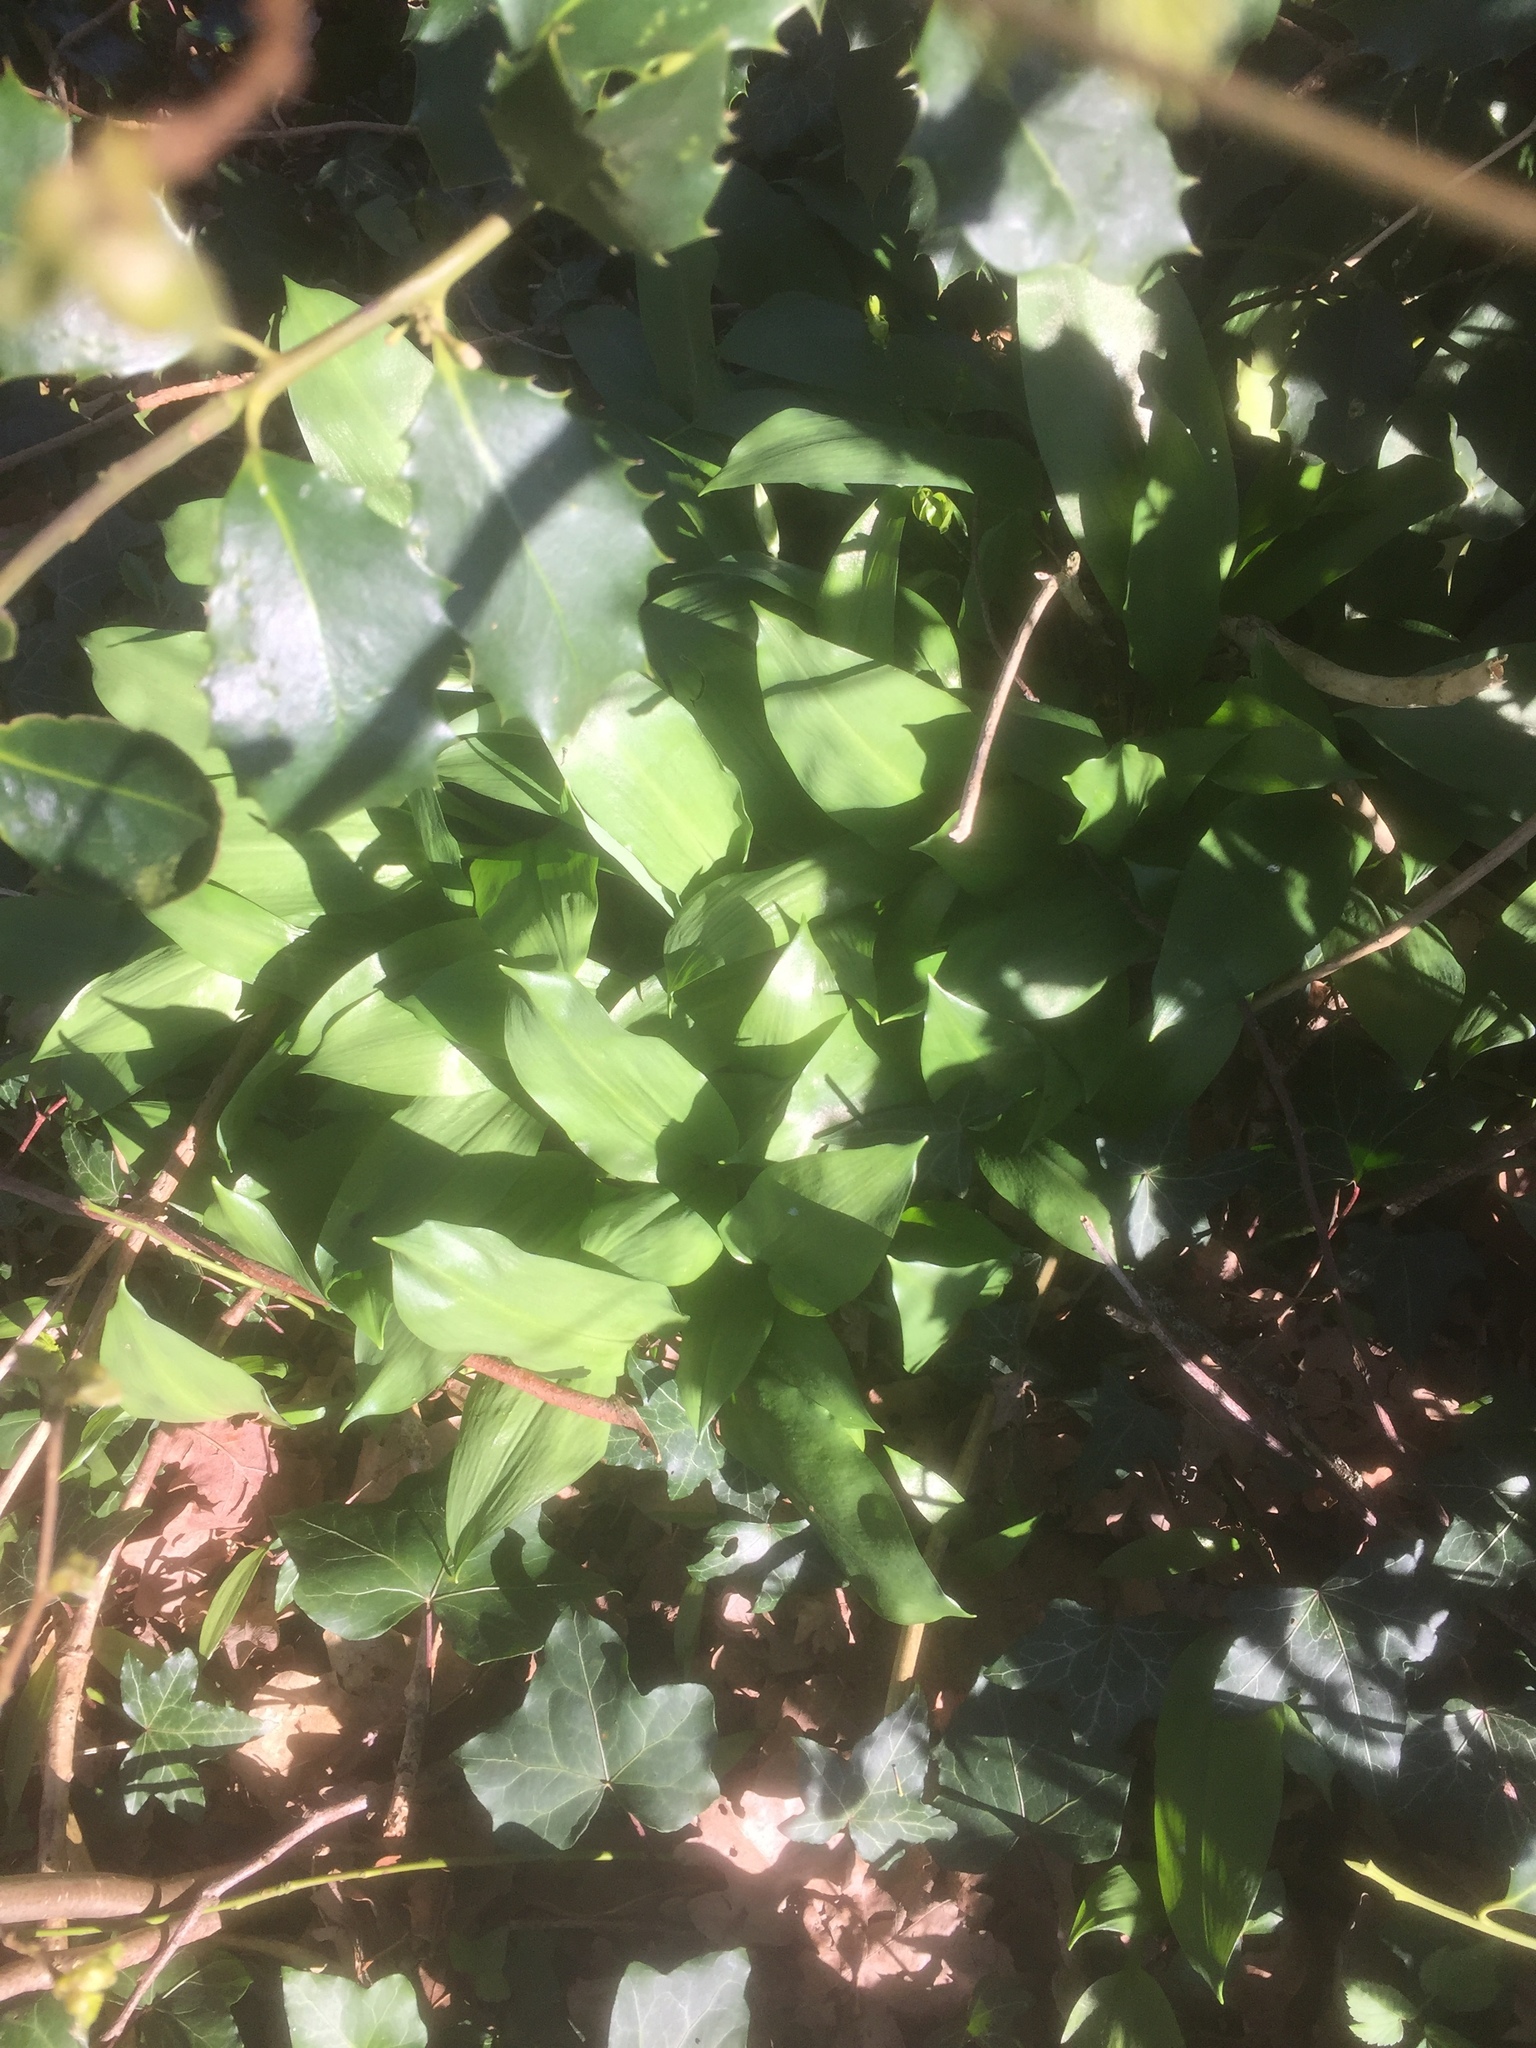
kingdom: Plantae
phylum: Tracheophyta
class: Liliopsida
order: Asparagales
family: Amaryllidaceae
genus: Allium
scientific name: Allium ursinum
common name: Ramsons
